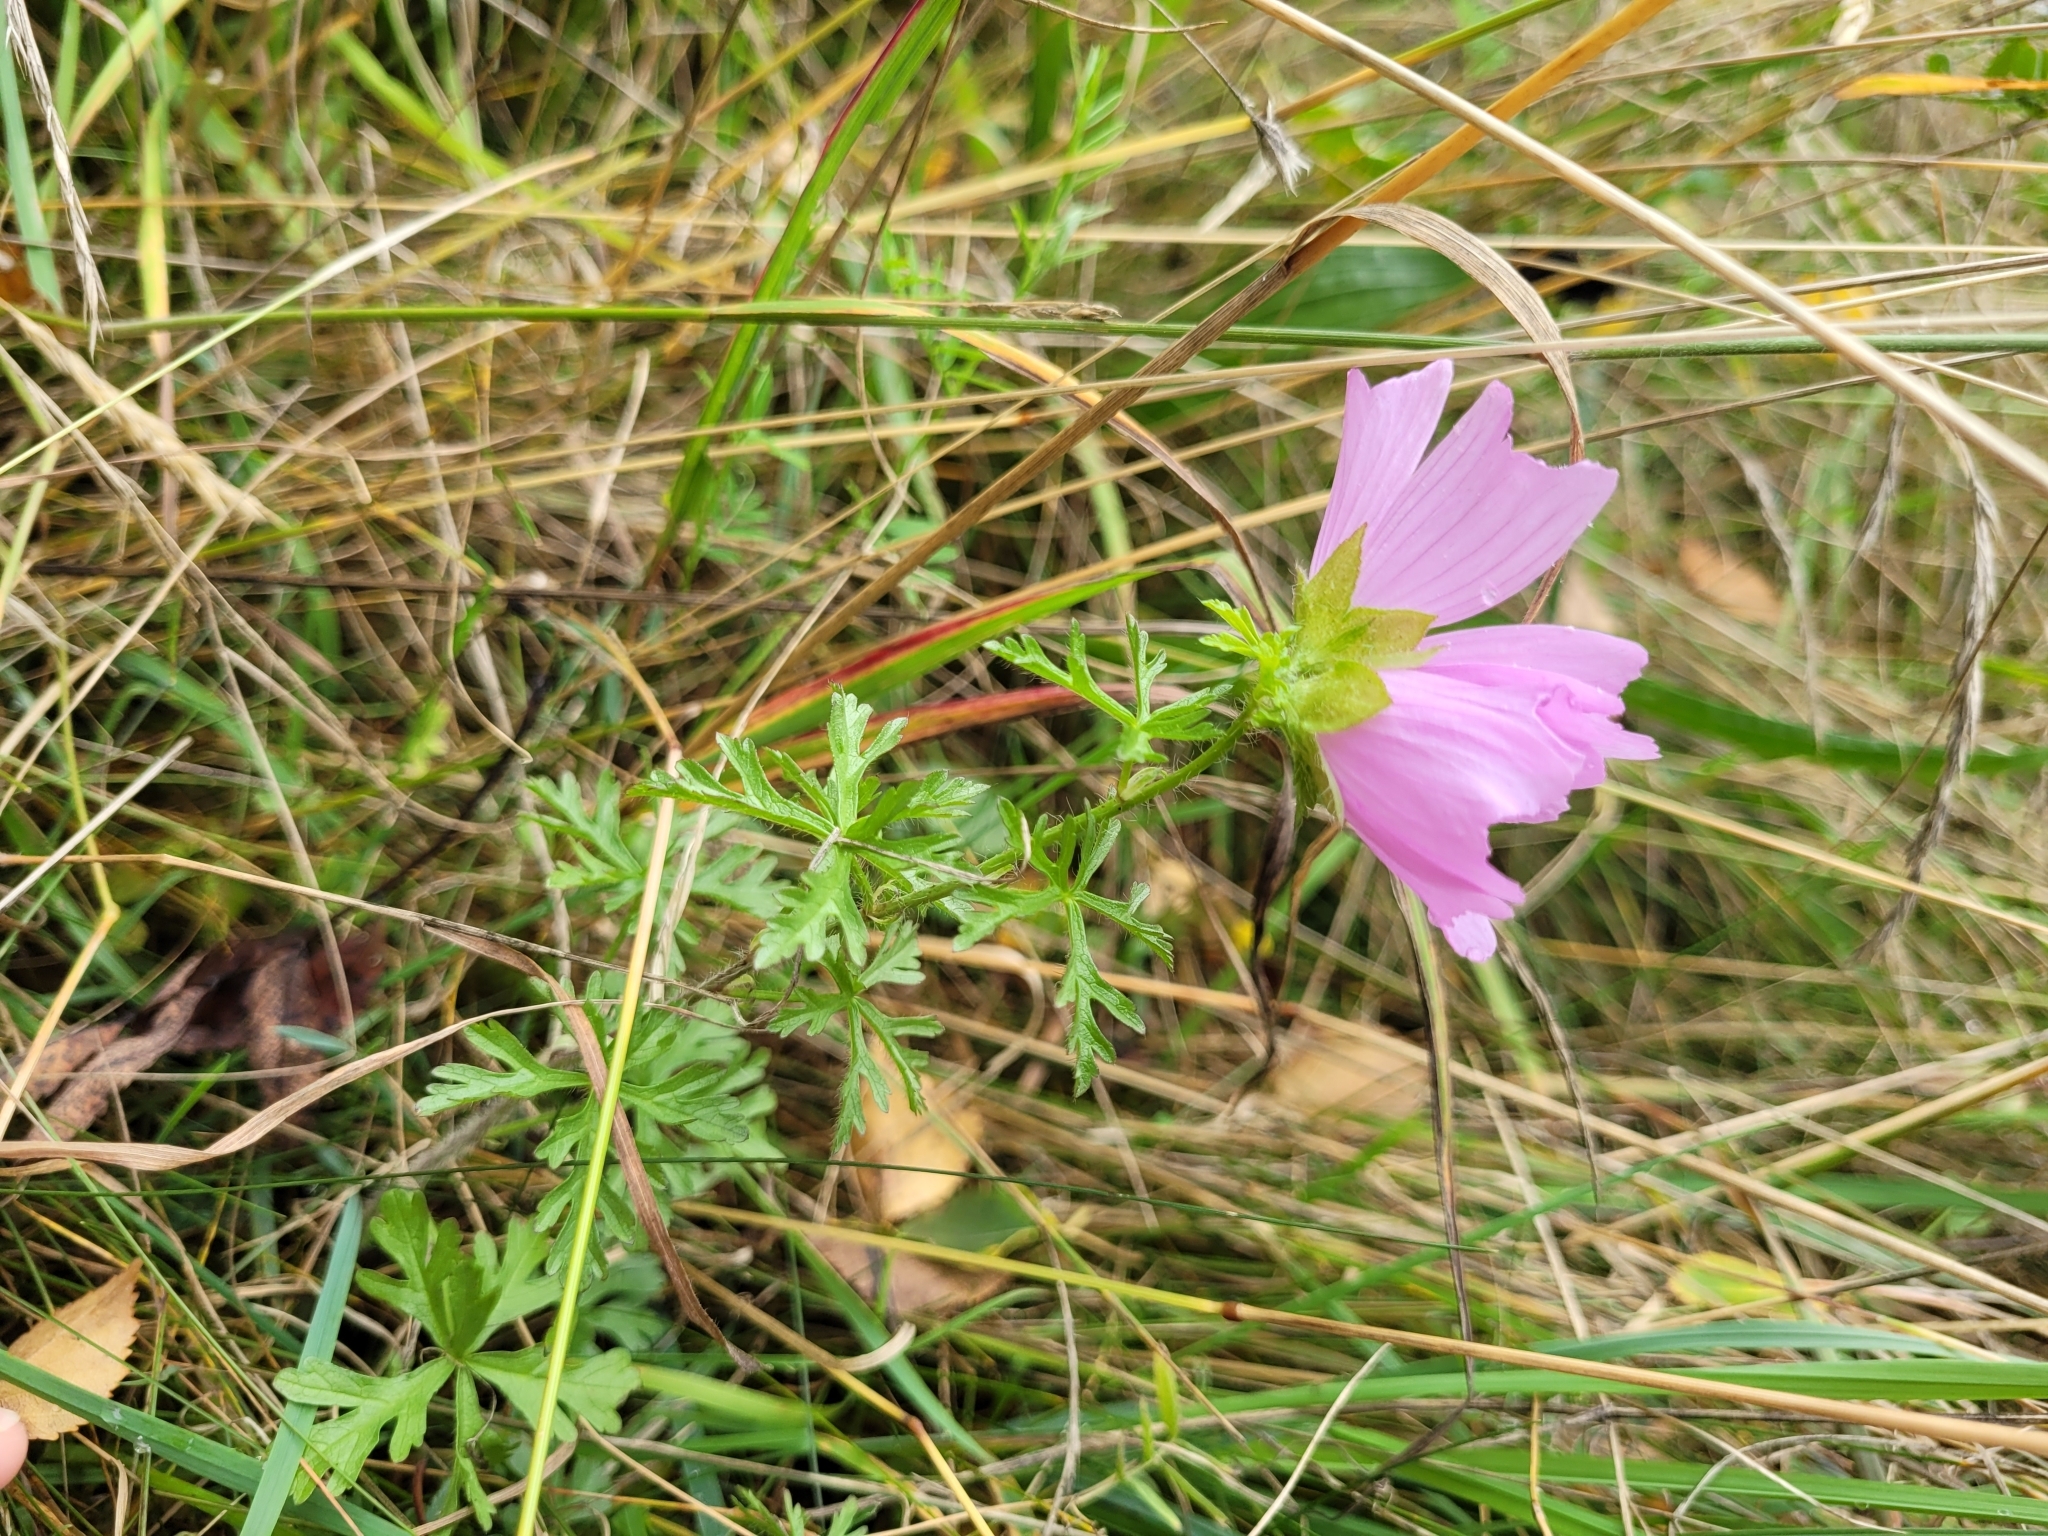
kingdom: Plantae
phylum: Tracheophyta
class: Magnoliopsida
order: Malvales
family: Malvaceae
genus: Malva
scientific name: Malva moschata
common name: Musk mallow
